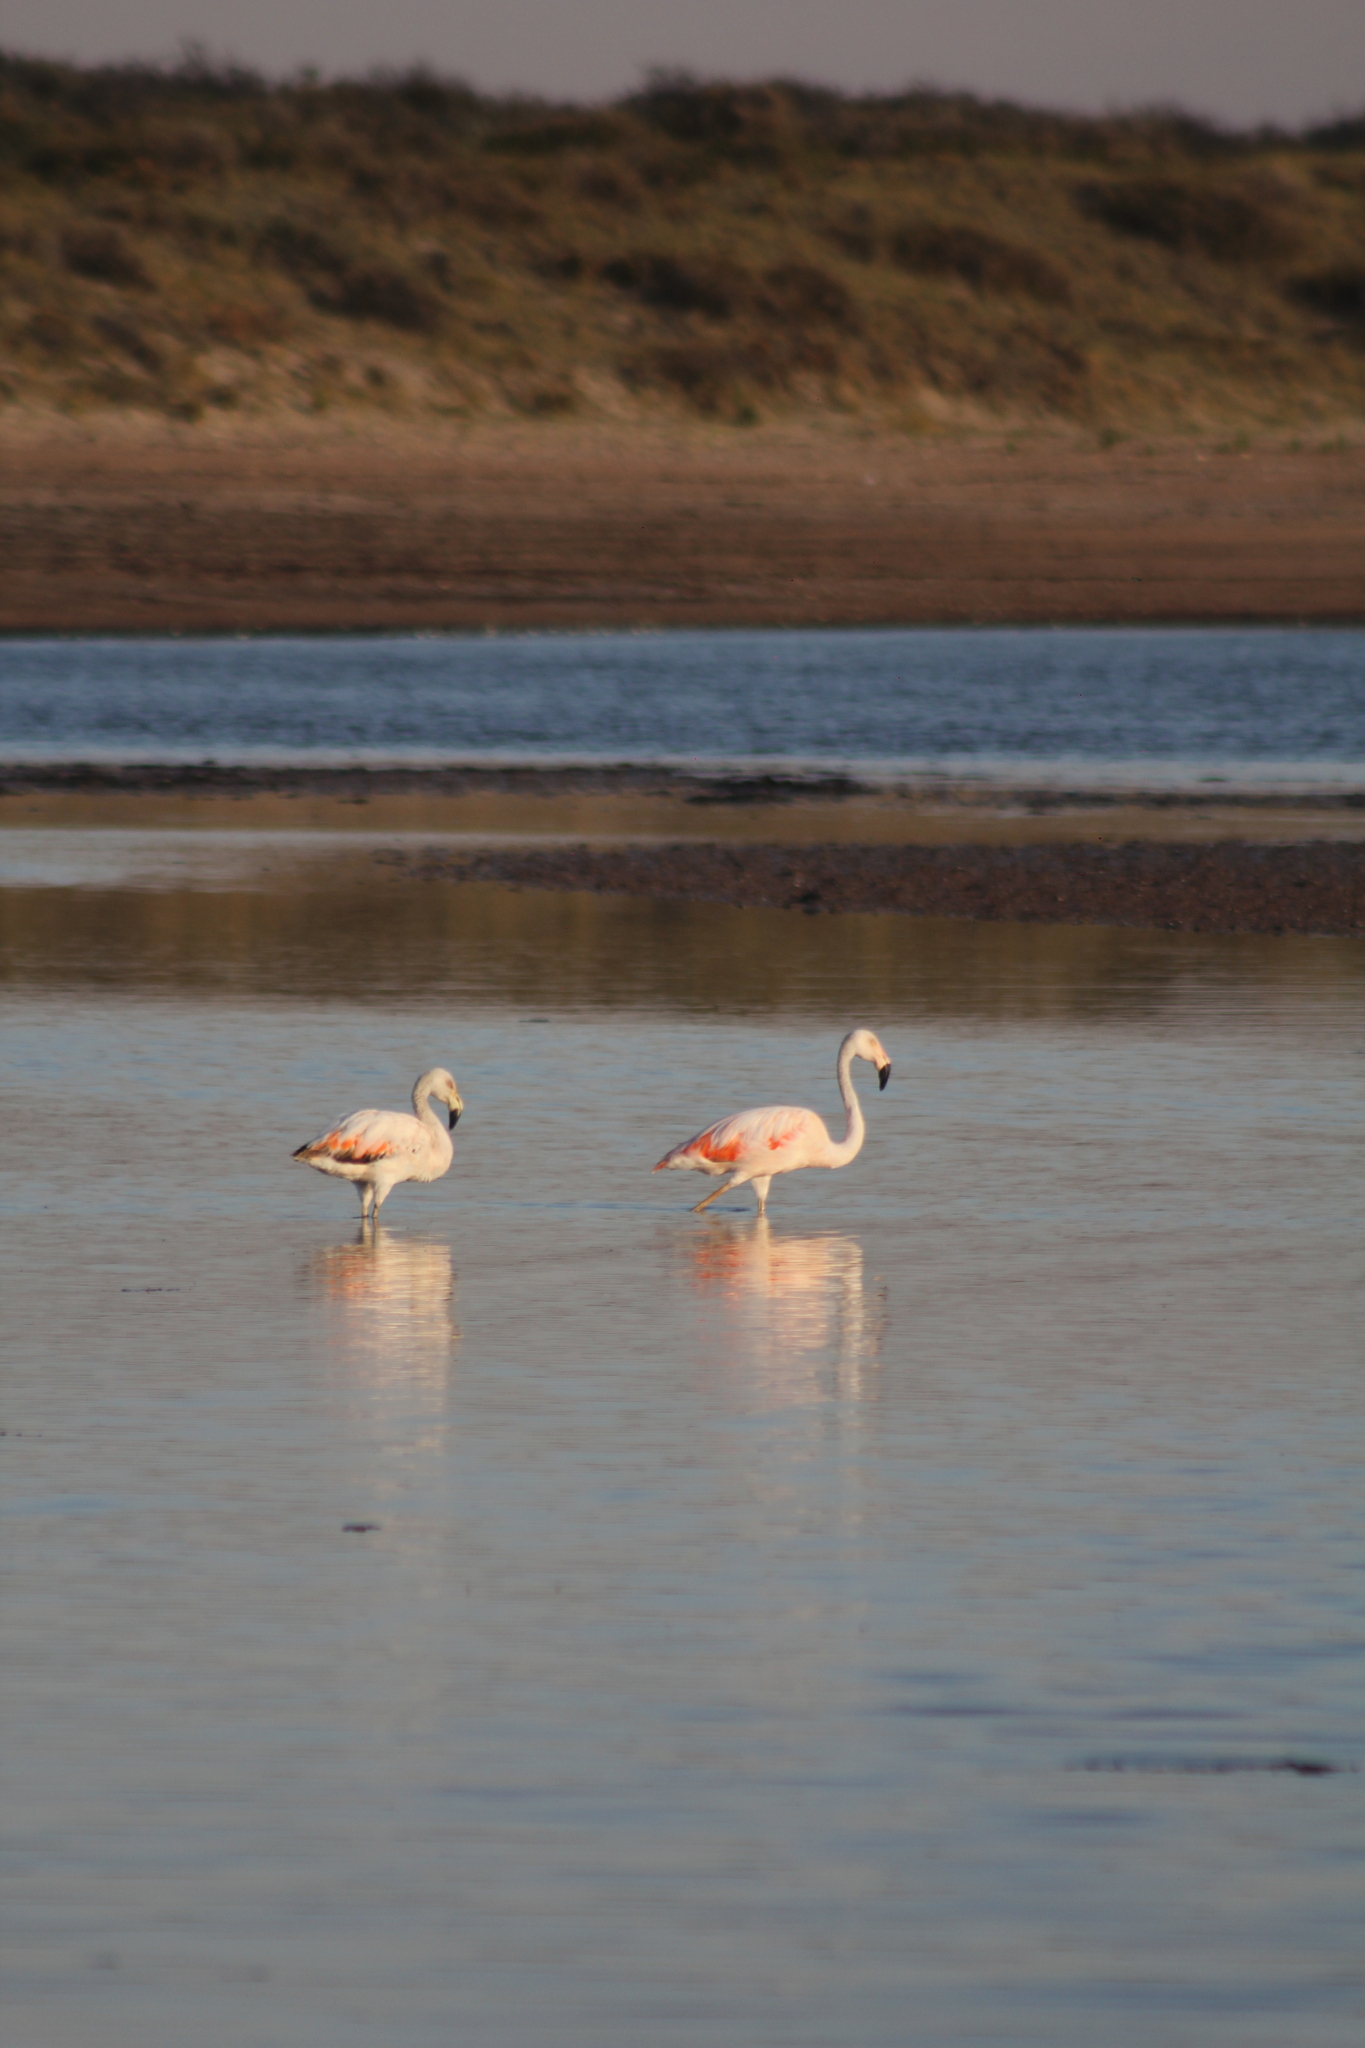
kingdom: Animalia
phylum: Chordata
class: Aves
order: Phoenicopteriformes
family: Phoenicopteridae
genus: Phoenicopterus
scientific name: Phoenicopterus chilensis
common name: Chilean flamingo
